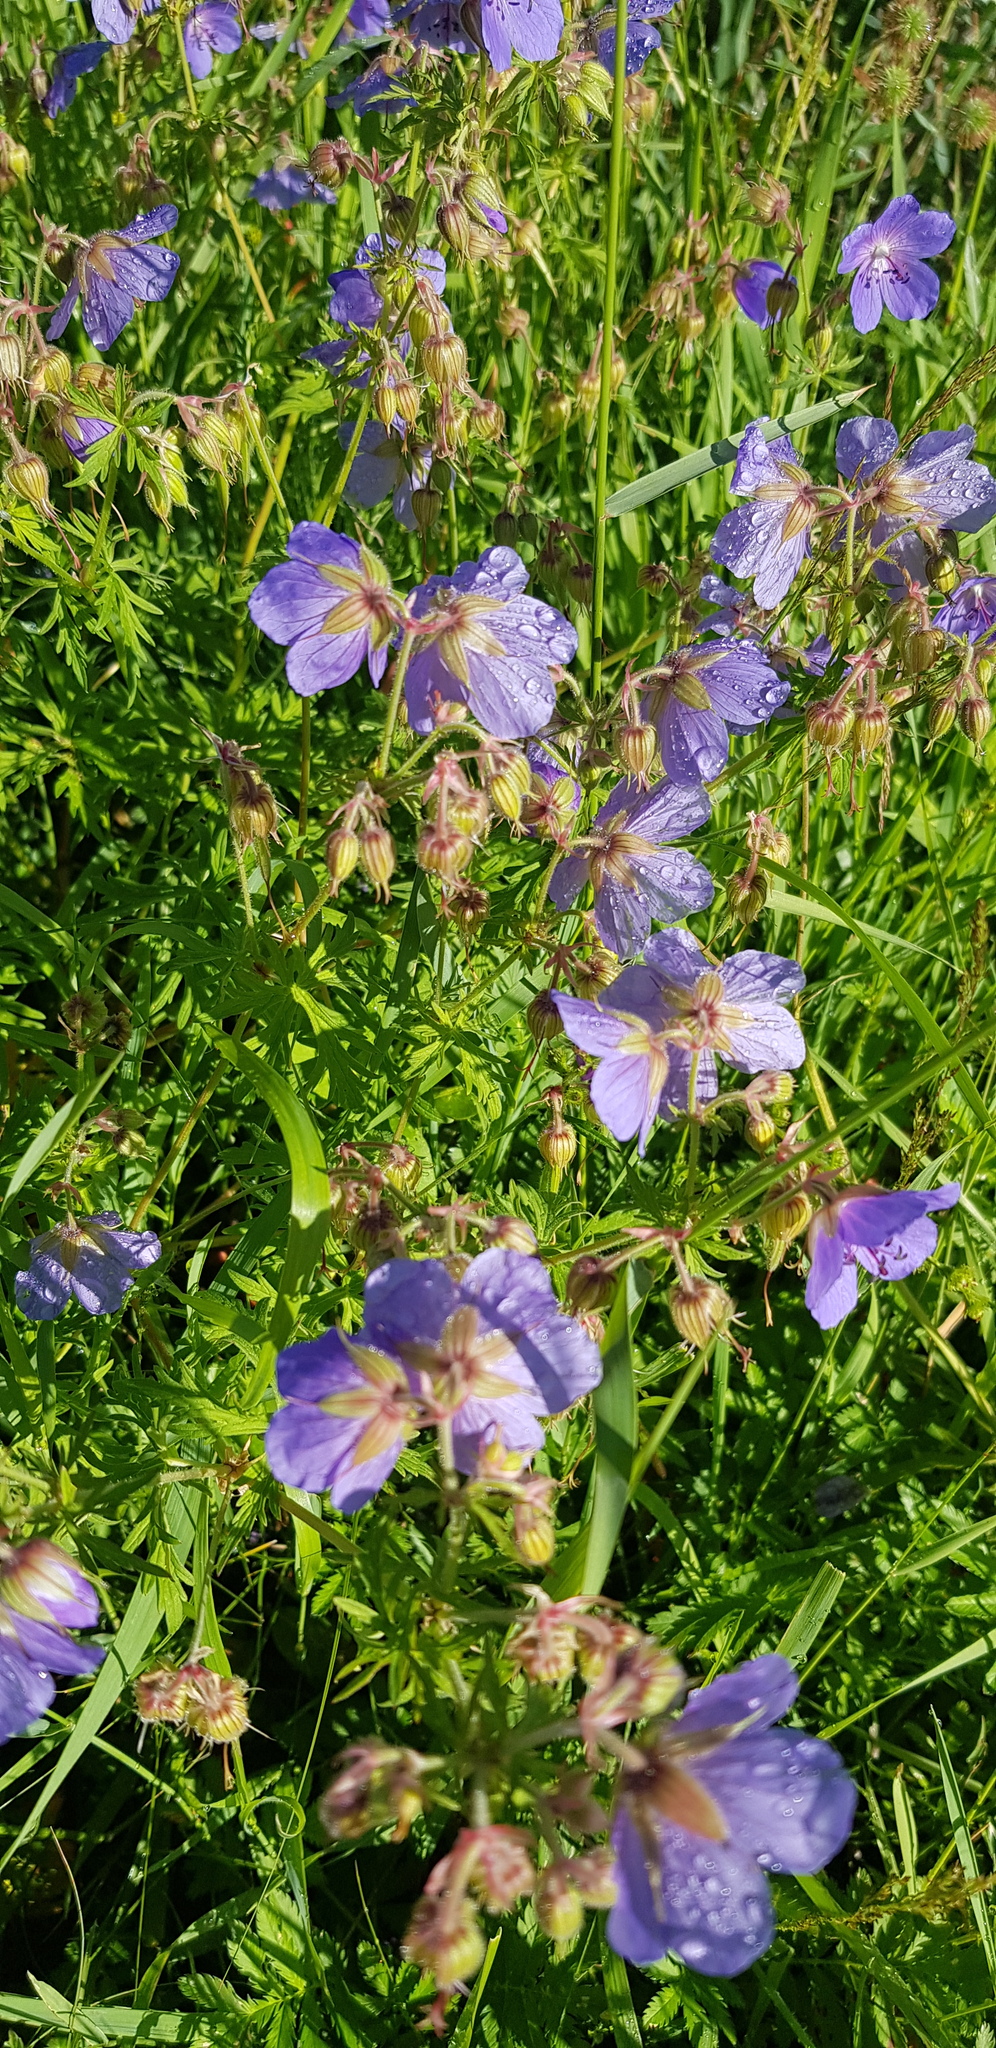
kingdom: Plantae
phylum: Tracheophyta
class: Magnoliopsida
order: Geraniales
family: Geraniaceae
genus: Geranium
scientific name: Geranium pratense
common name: Meadow crane's-bill
